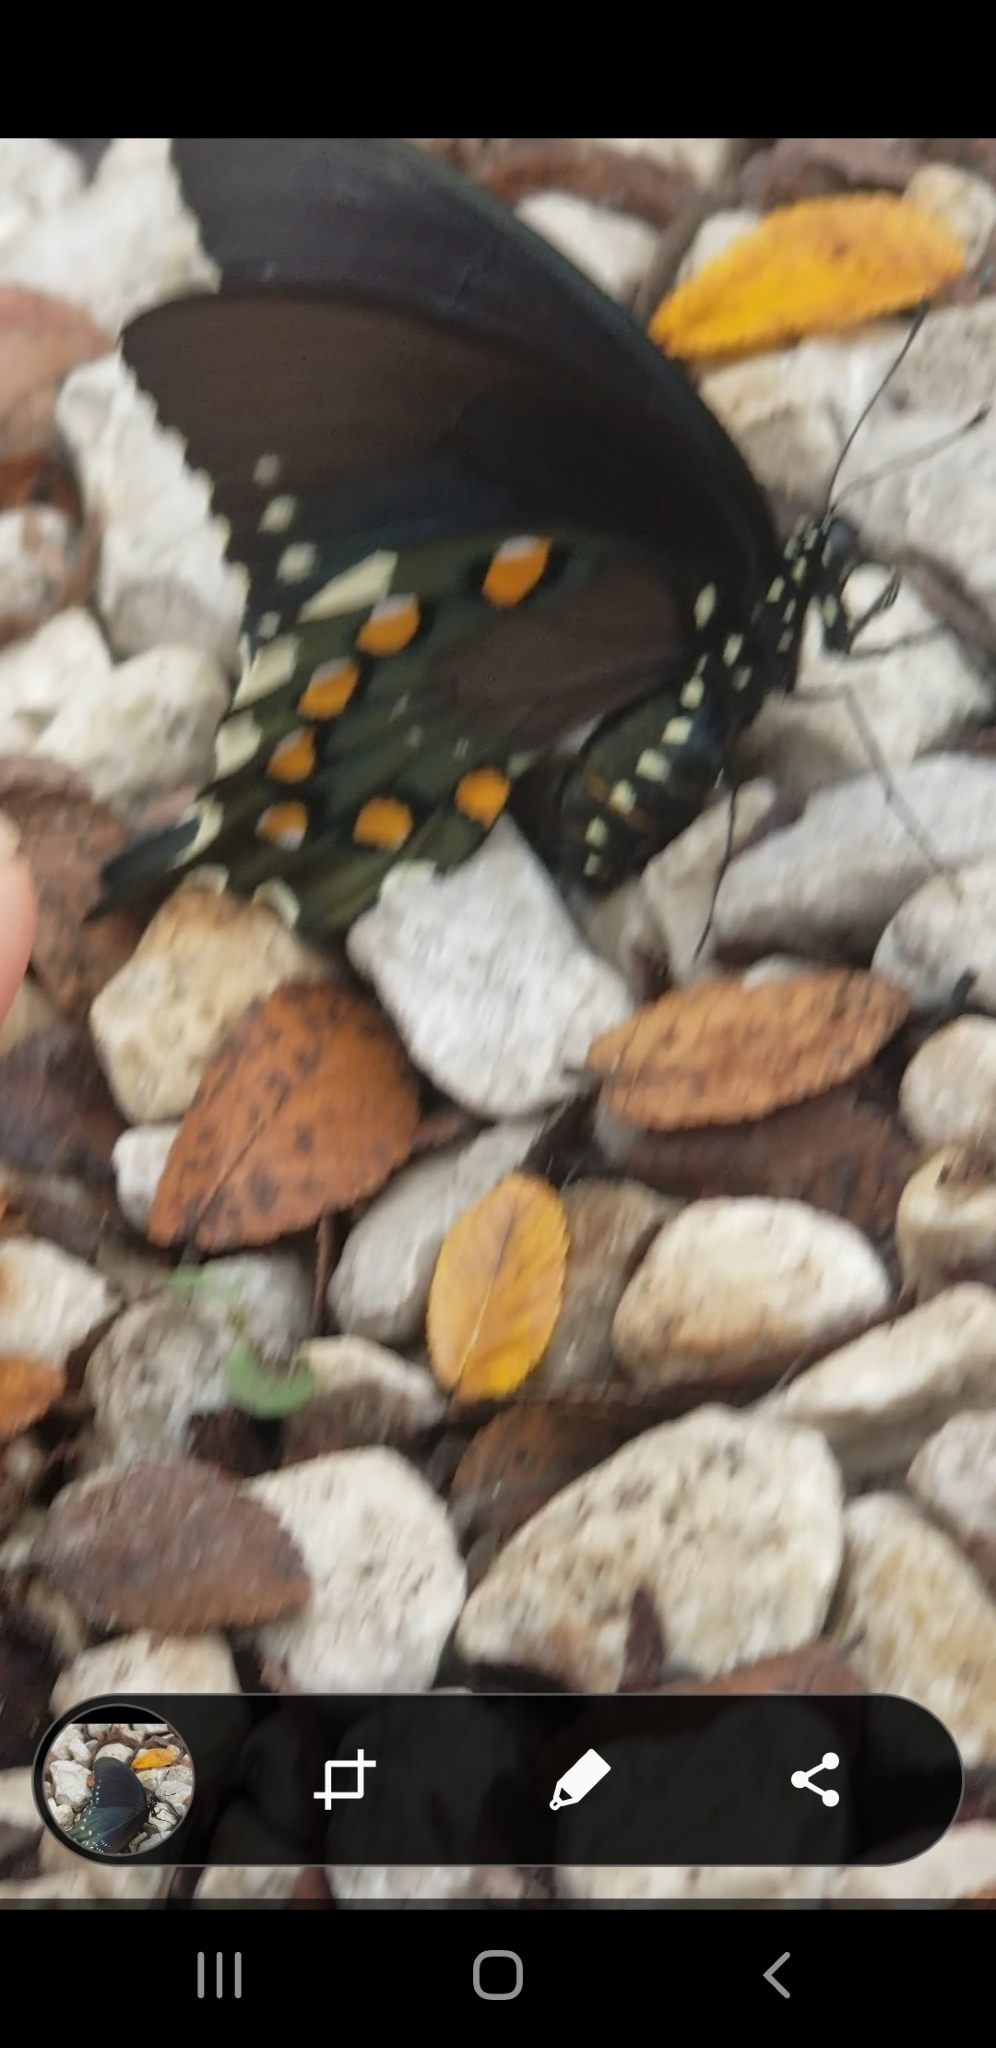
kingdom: Animalia
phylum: Arthropoda
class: Insecta
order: Lepidoptera
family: Papilionidae
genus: Battus
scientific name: Battus philenor
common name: Pipevine swallowtail
